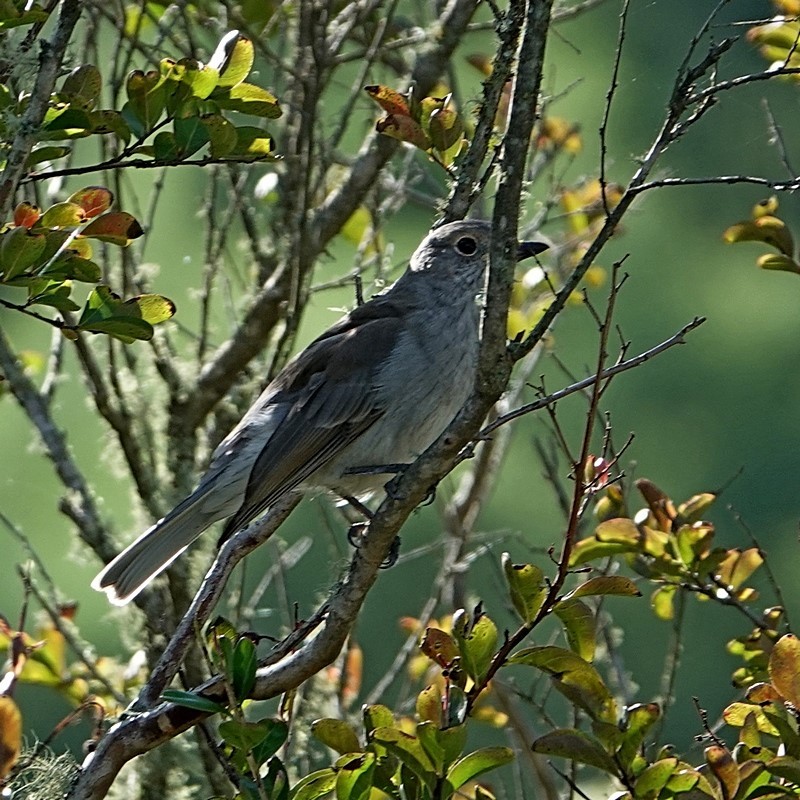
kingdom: Animalia
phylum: Chordata
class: Aves
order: Passeriformes
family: Pachycephalidae
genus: Colluricincla
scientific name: Colluricincla harmonica
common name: Grey shrikethrush
